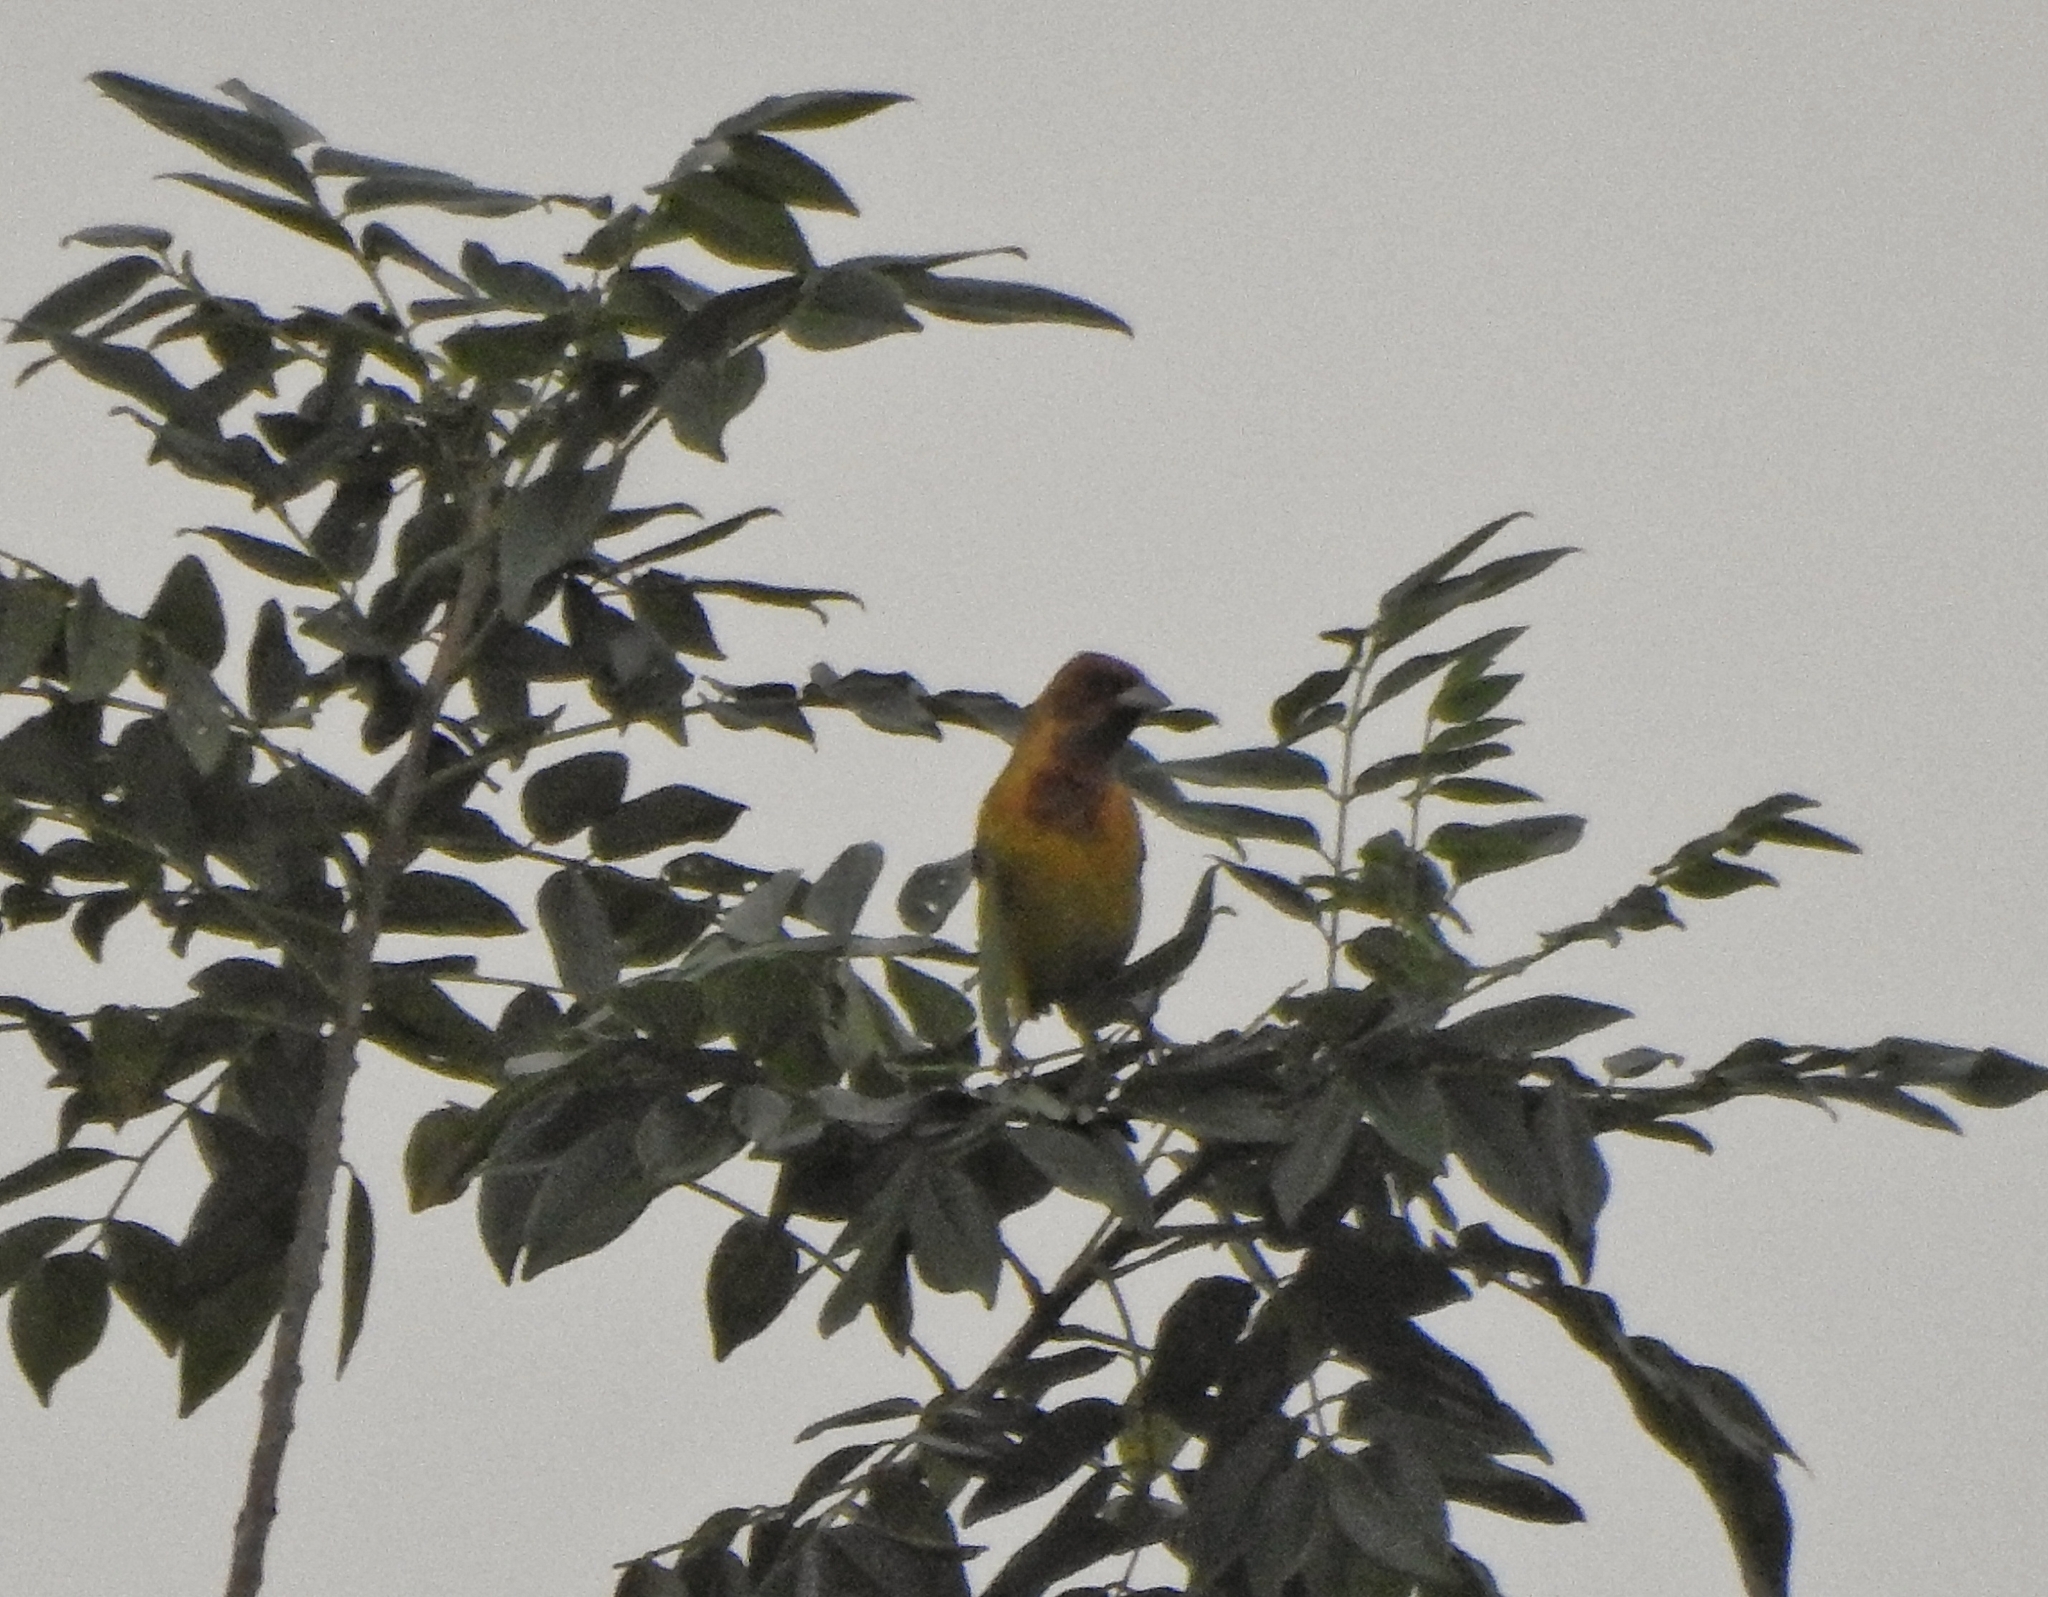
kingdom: Animalia
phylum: Chordata
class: Aves
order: Passeriformes
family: Emberizidae
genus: Emberiza
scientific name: Emberiza bruniceps
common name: Red-headed bunting
